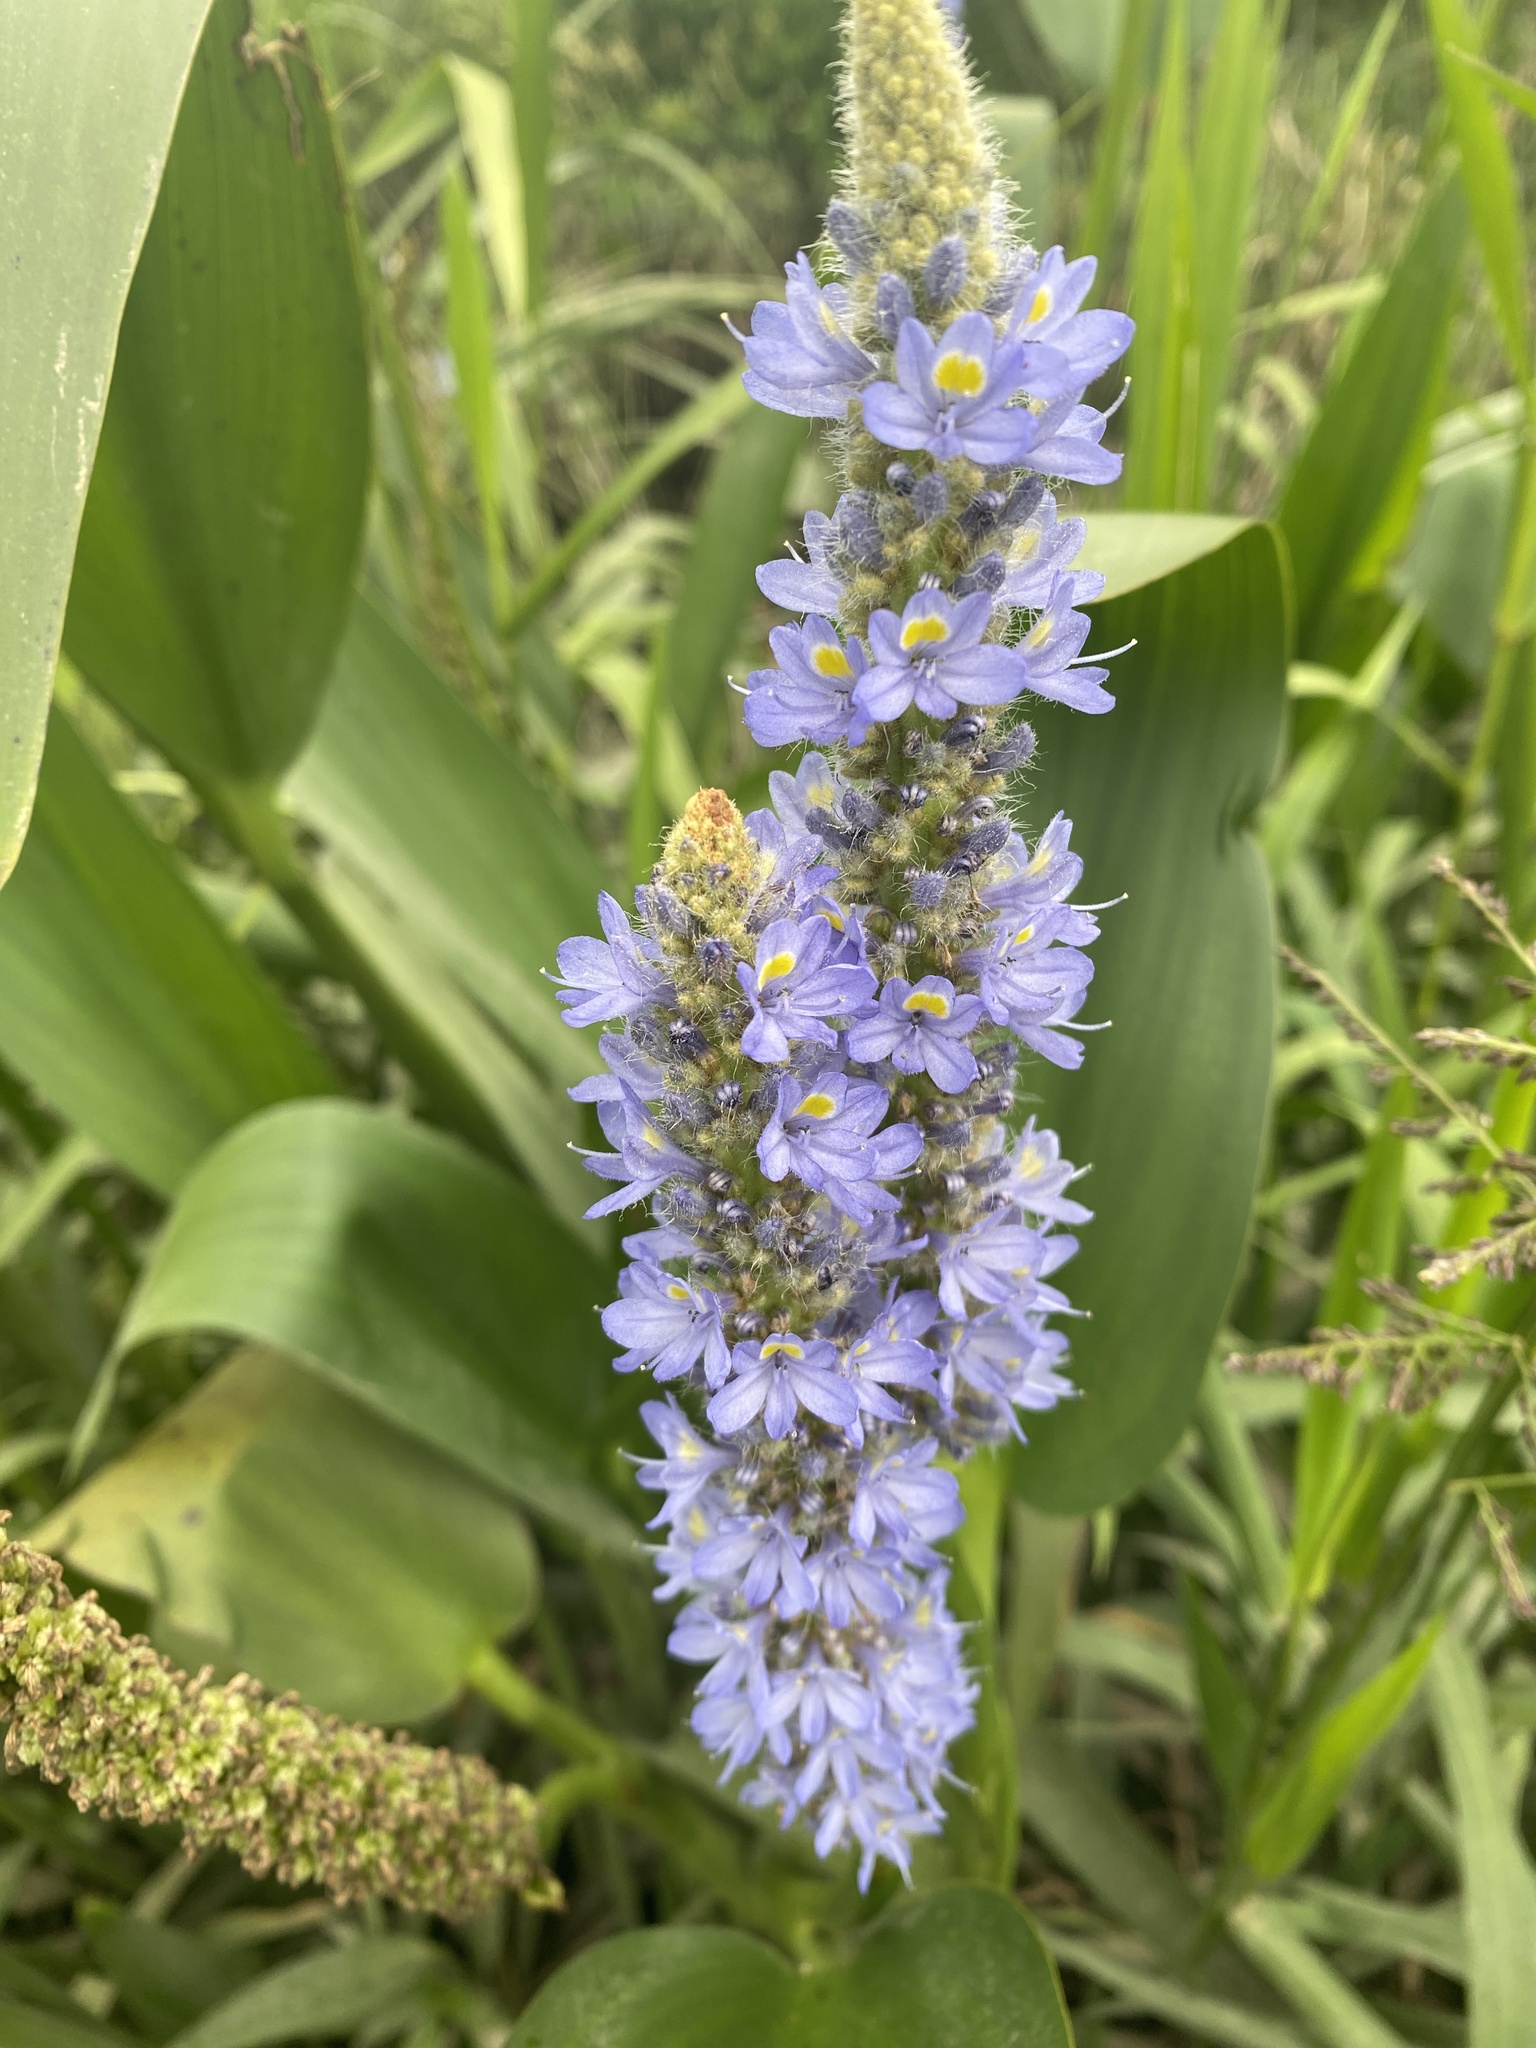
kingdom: Plantae
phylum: Tracheophyta
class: Liliopsida
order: Commelinales
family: Pontederiaceae
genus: Pontederia
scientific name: Pontederia cordata
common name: Pickerelweed
